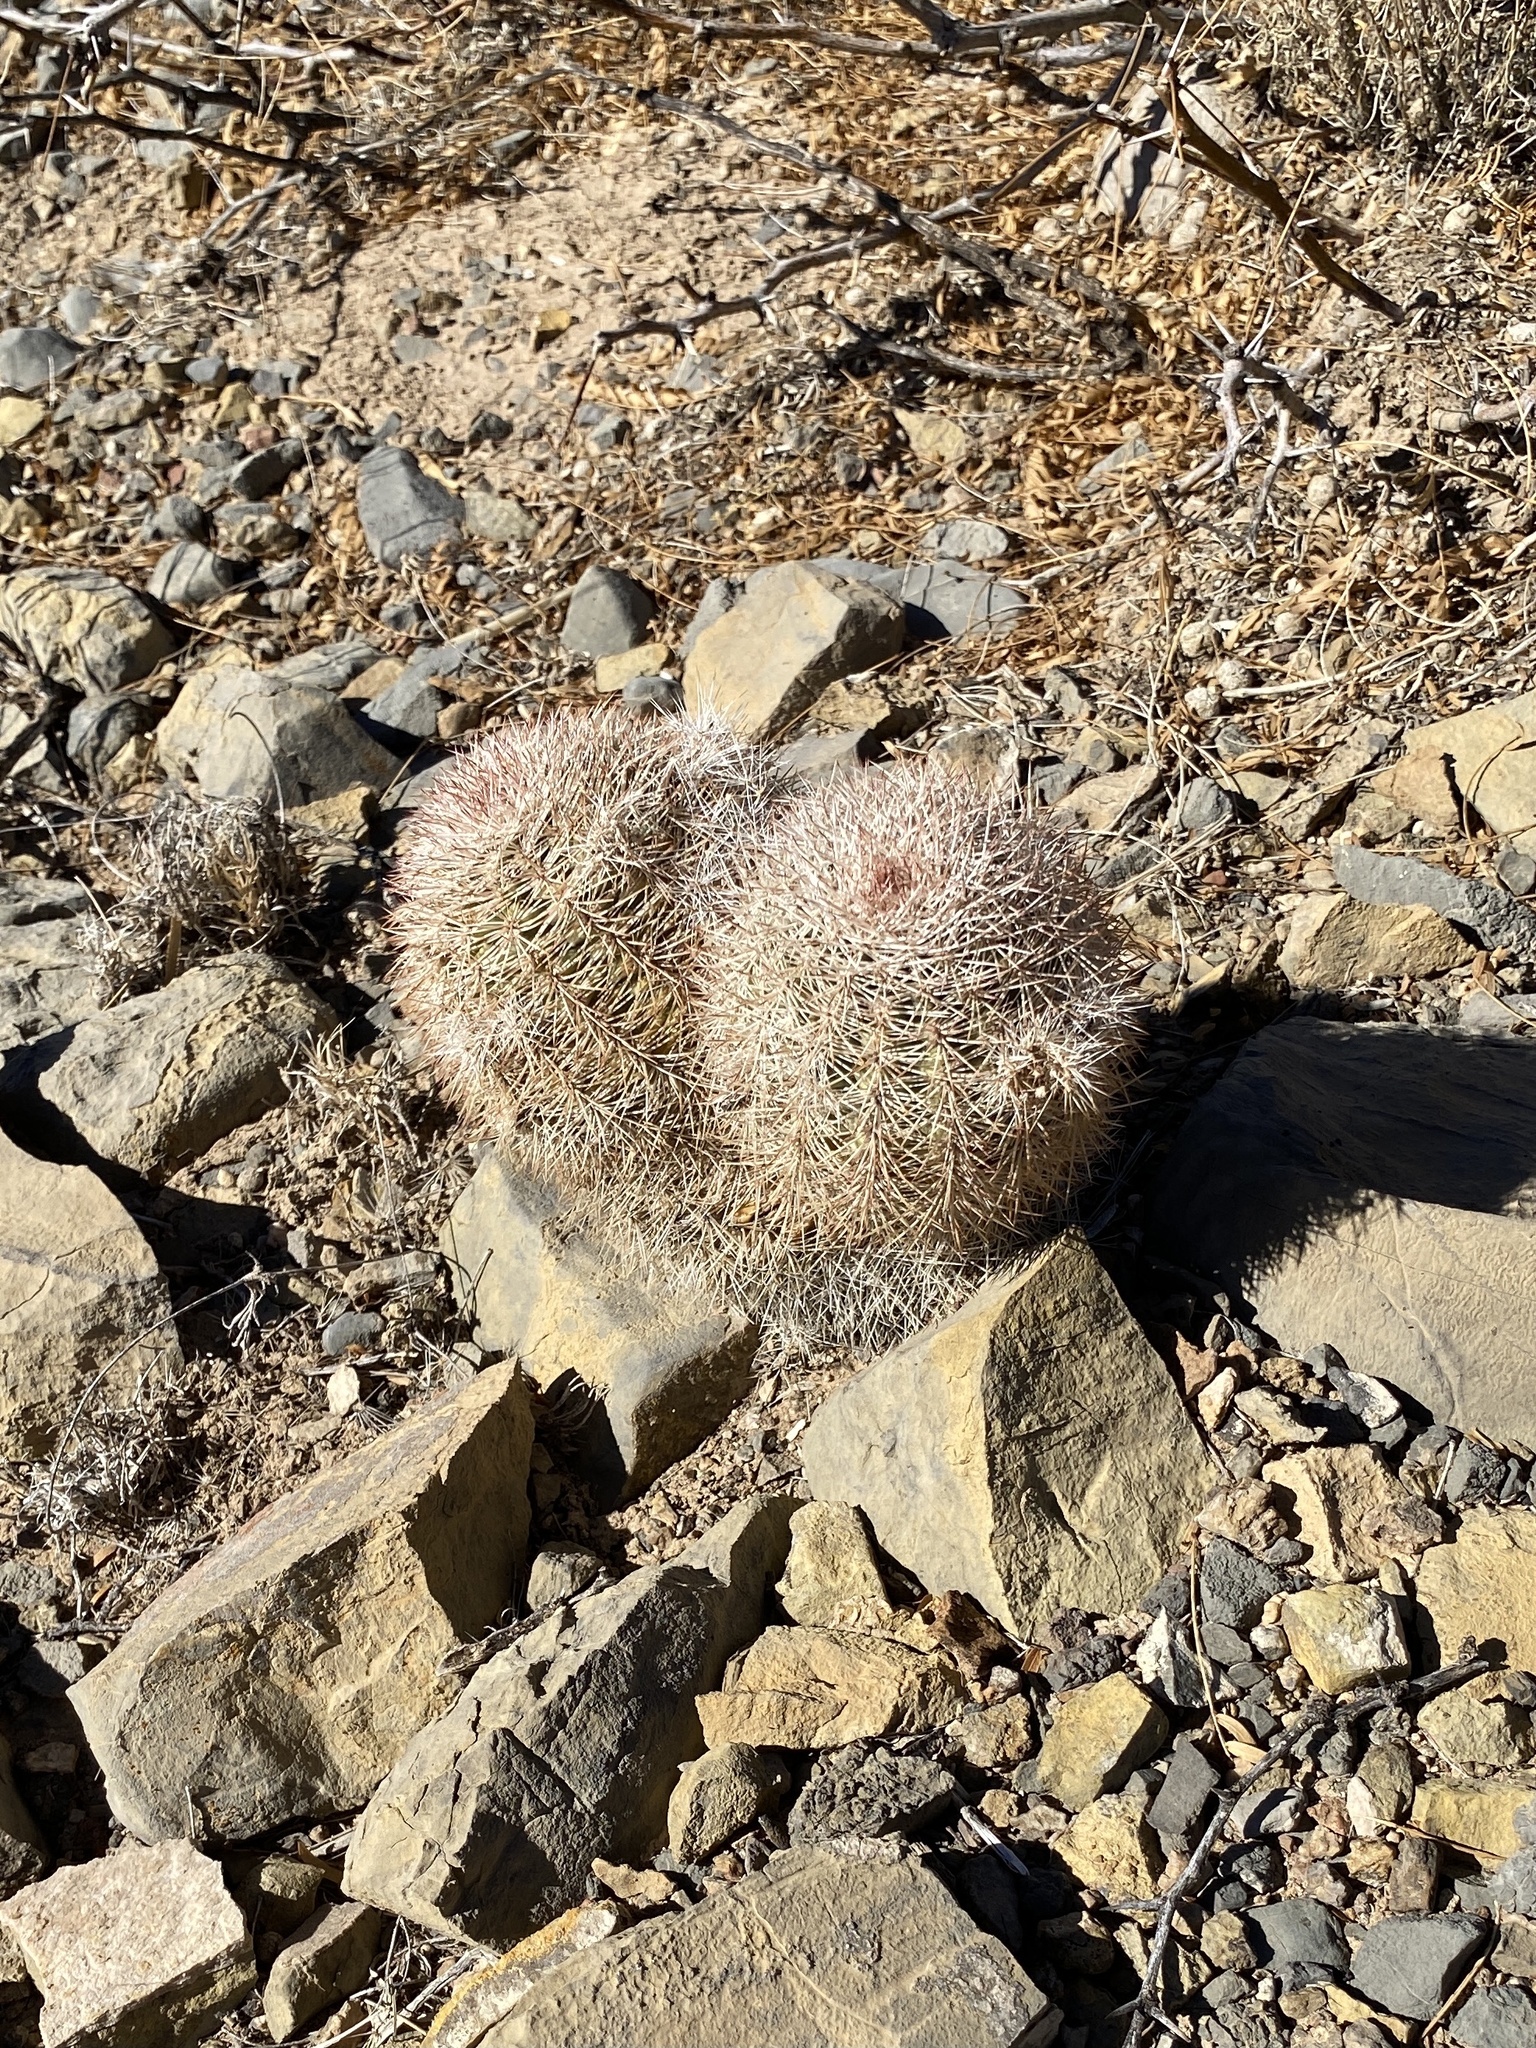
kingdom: Plantae
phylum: Tracheophyta
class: Magnoliopsida
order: Caryophyllales
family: Cactaceae
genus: Echinocereus
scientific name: Echinocereus dasyacanthus
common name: Spiny hedgehog cactus
